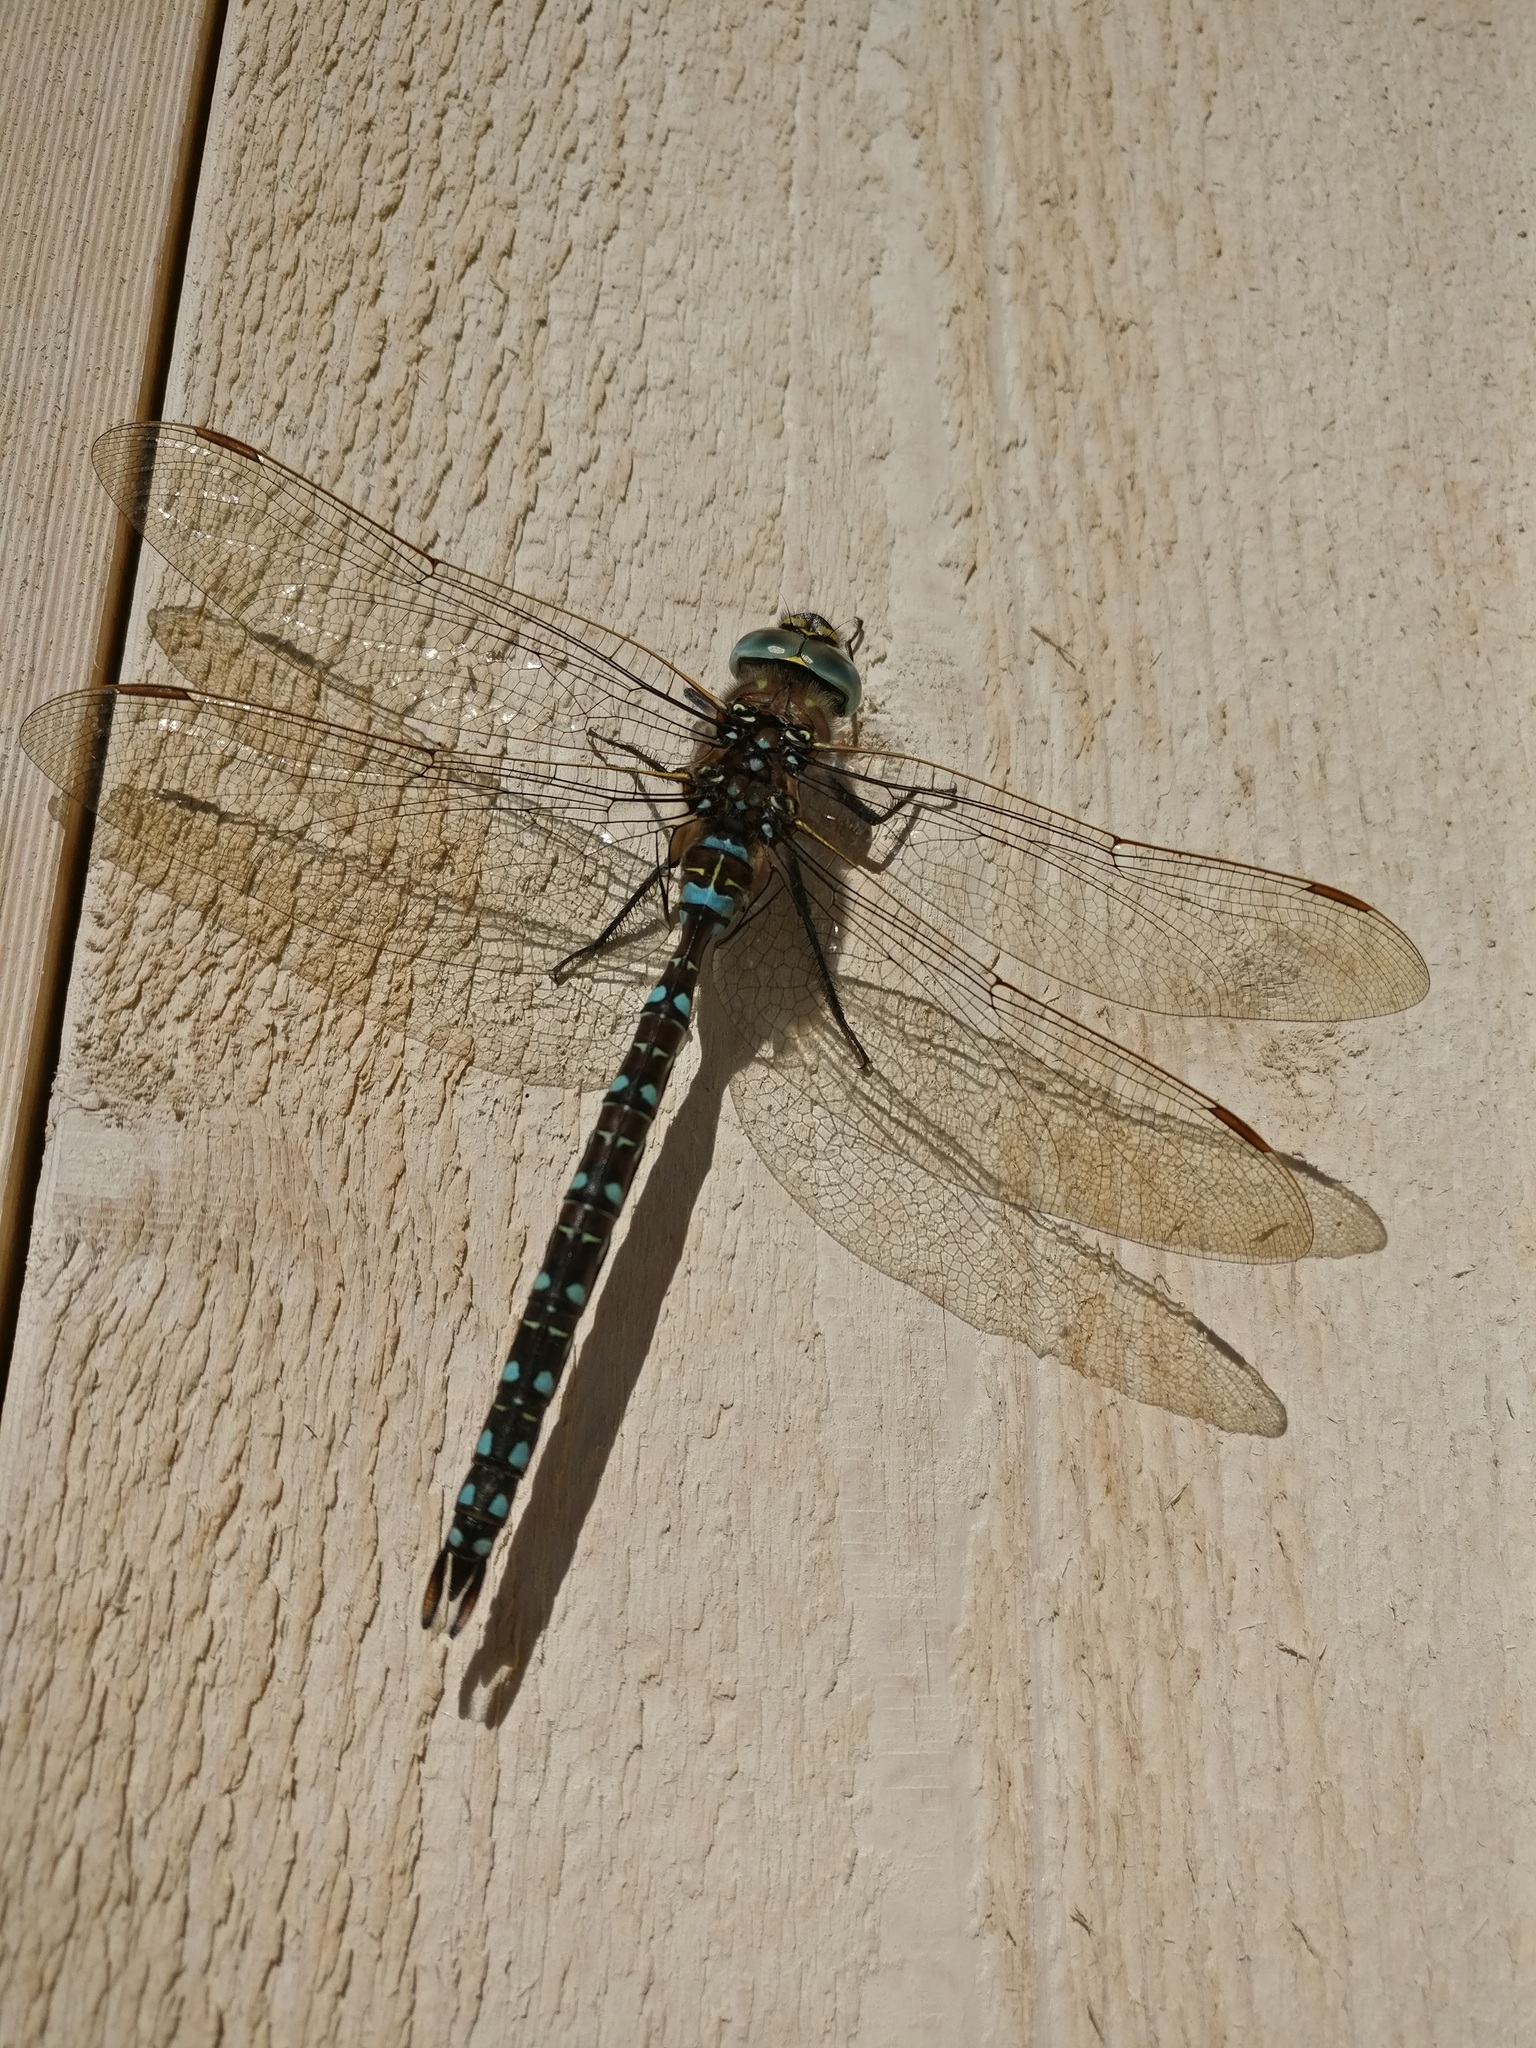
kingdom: Animalia
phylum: Arthropoda
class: Insecta
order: Odonata
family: Aeshnidae
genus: Aeshna
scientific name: Aeshna juncea
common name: Moorland hawker
